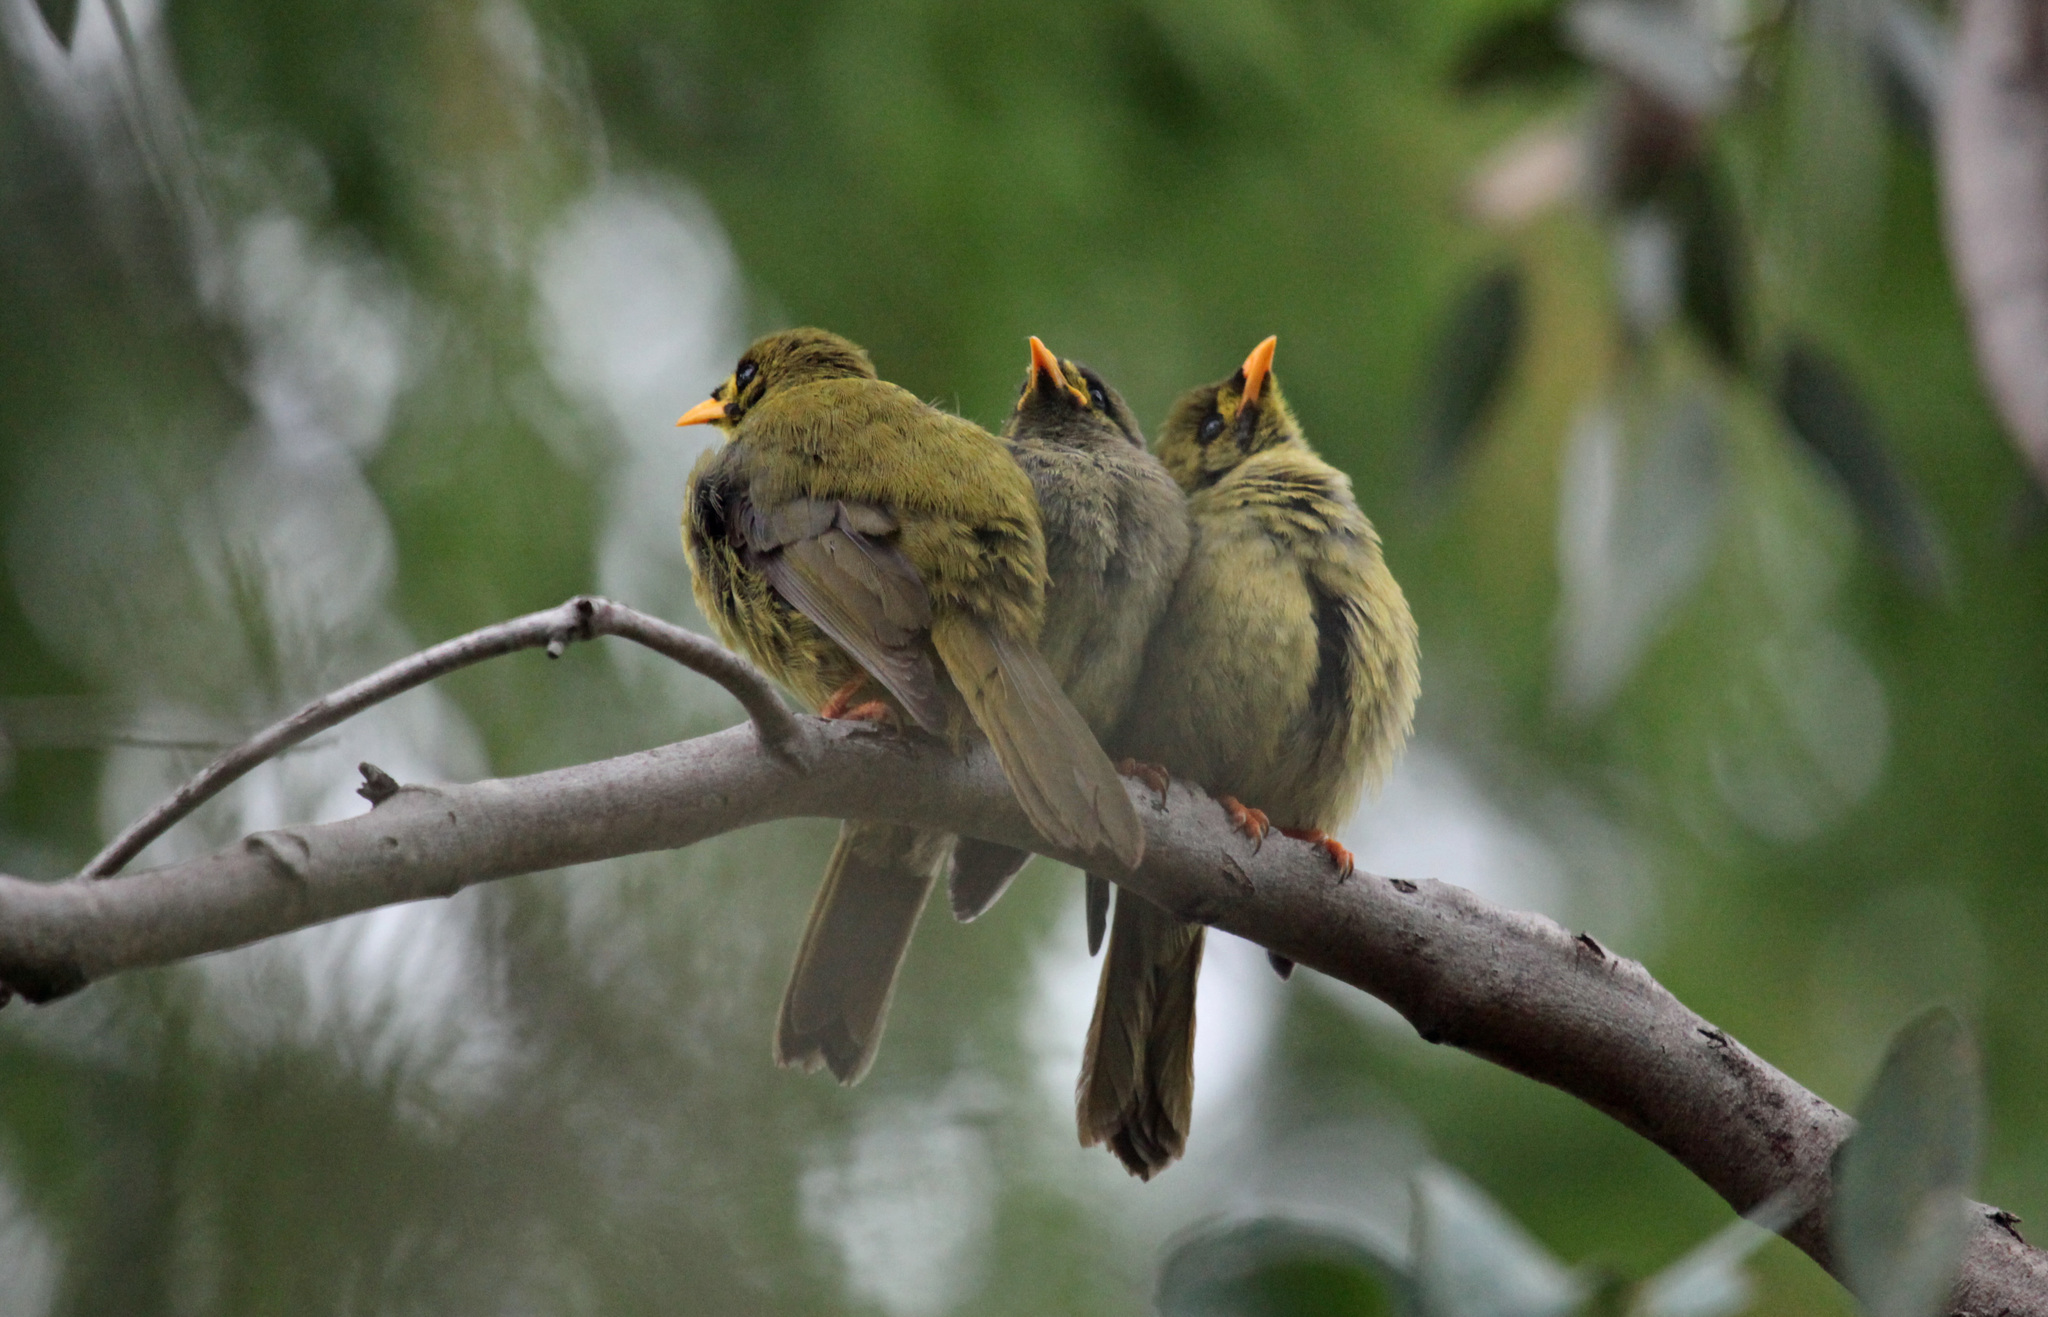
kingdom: Animalia
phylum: Chordata
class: Aves
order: Passeriformes
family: Meliphagidae
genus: Manorina
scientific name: Manorina melanophrys
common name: Bell miner
